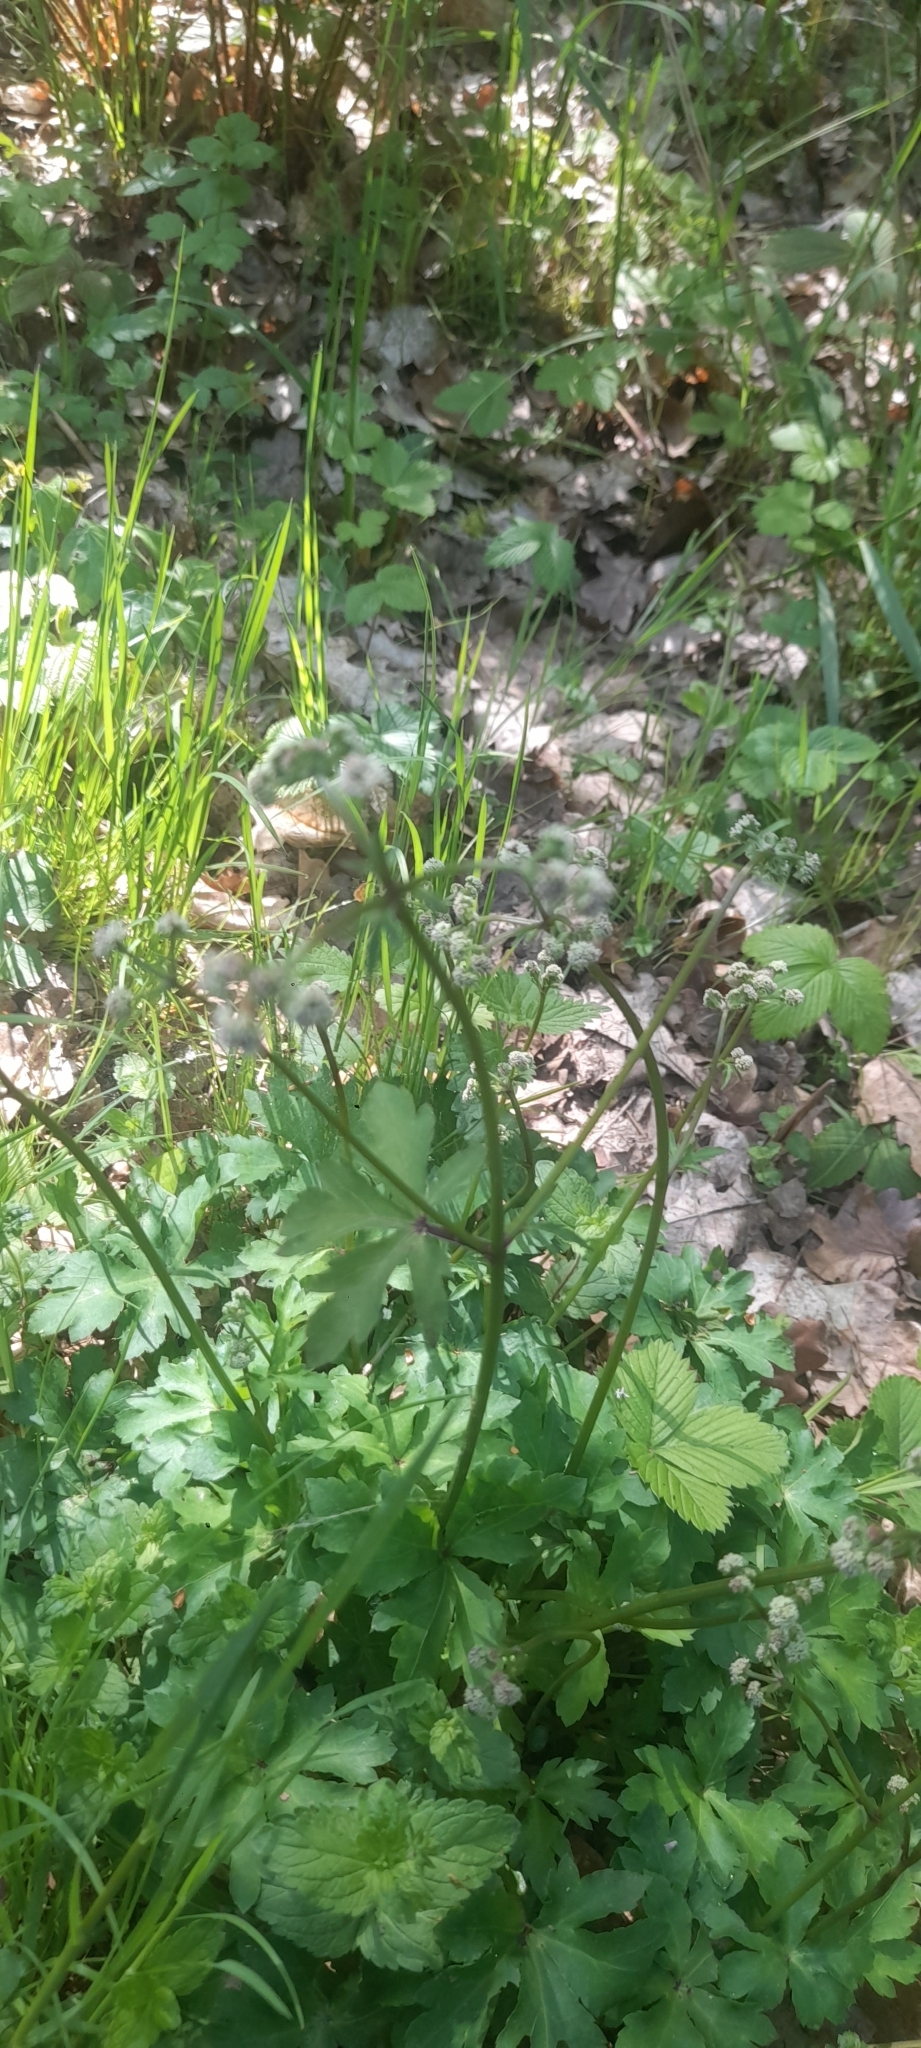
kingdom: Plantae
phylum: Tracheophyta
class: Magnoliopsida
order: Apiales
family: Apiaceae
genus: Sanicula
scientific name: Sanicula europaea
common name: Sanicle
